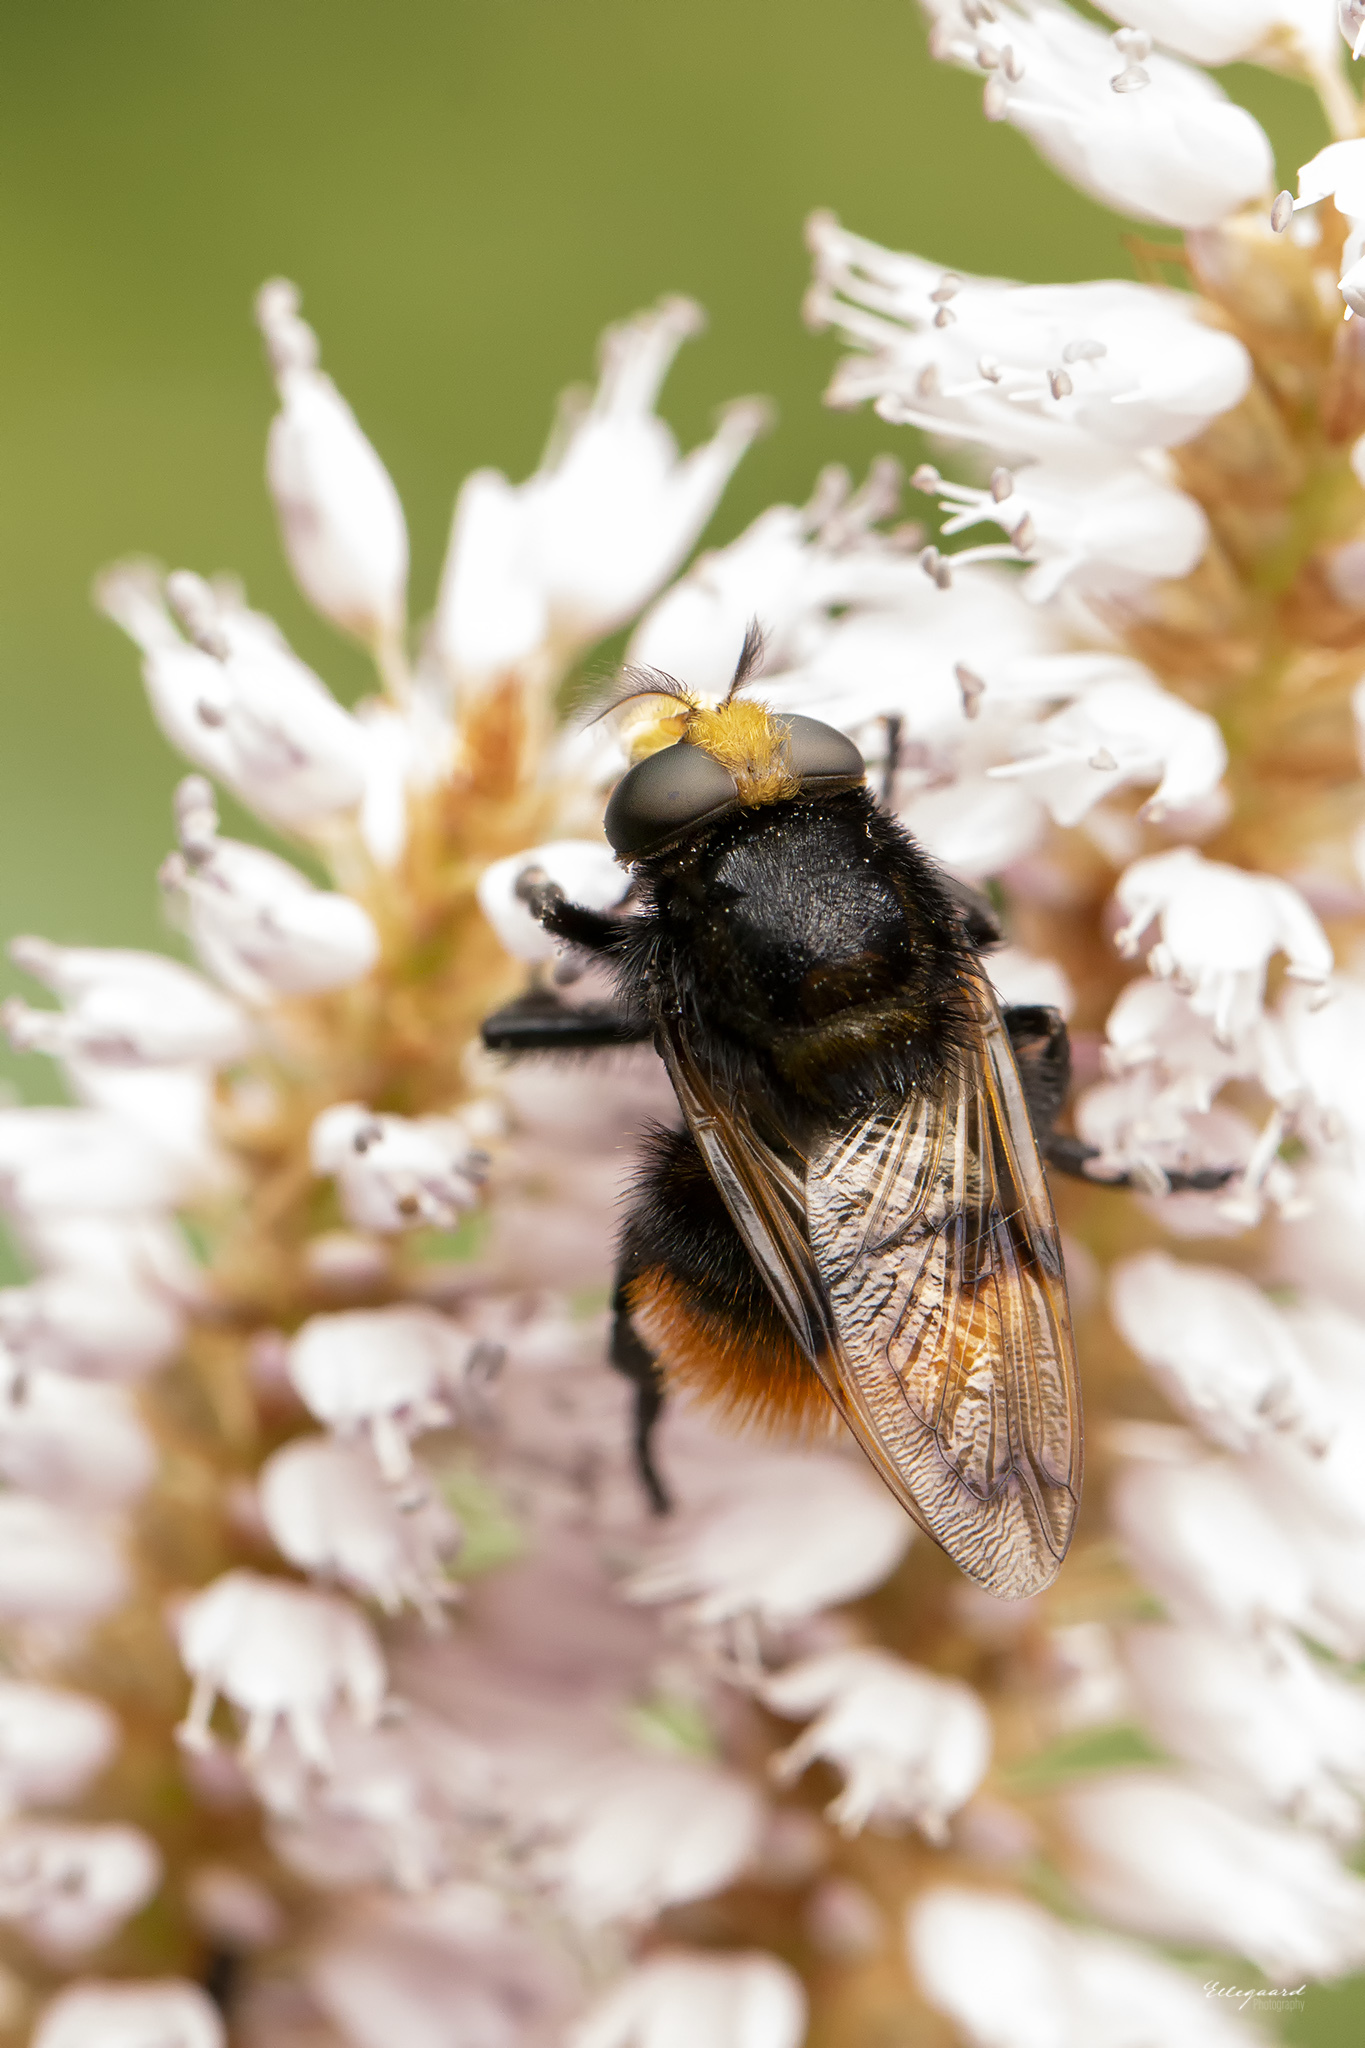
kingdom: Animalia
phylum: Arthropoda
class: Insecta
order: Diptera
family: Syrphidae
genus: Volucella
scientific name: Volucella bombylans
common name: Bumble bee hover fly
